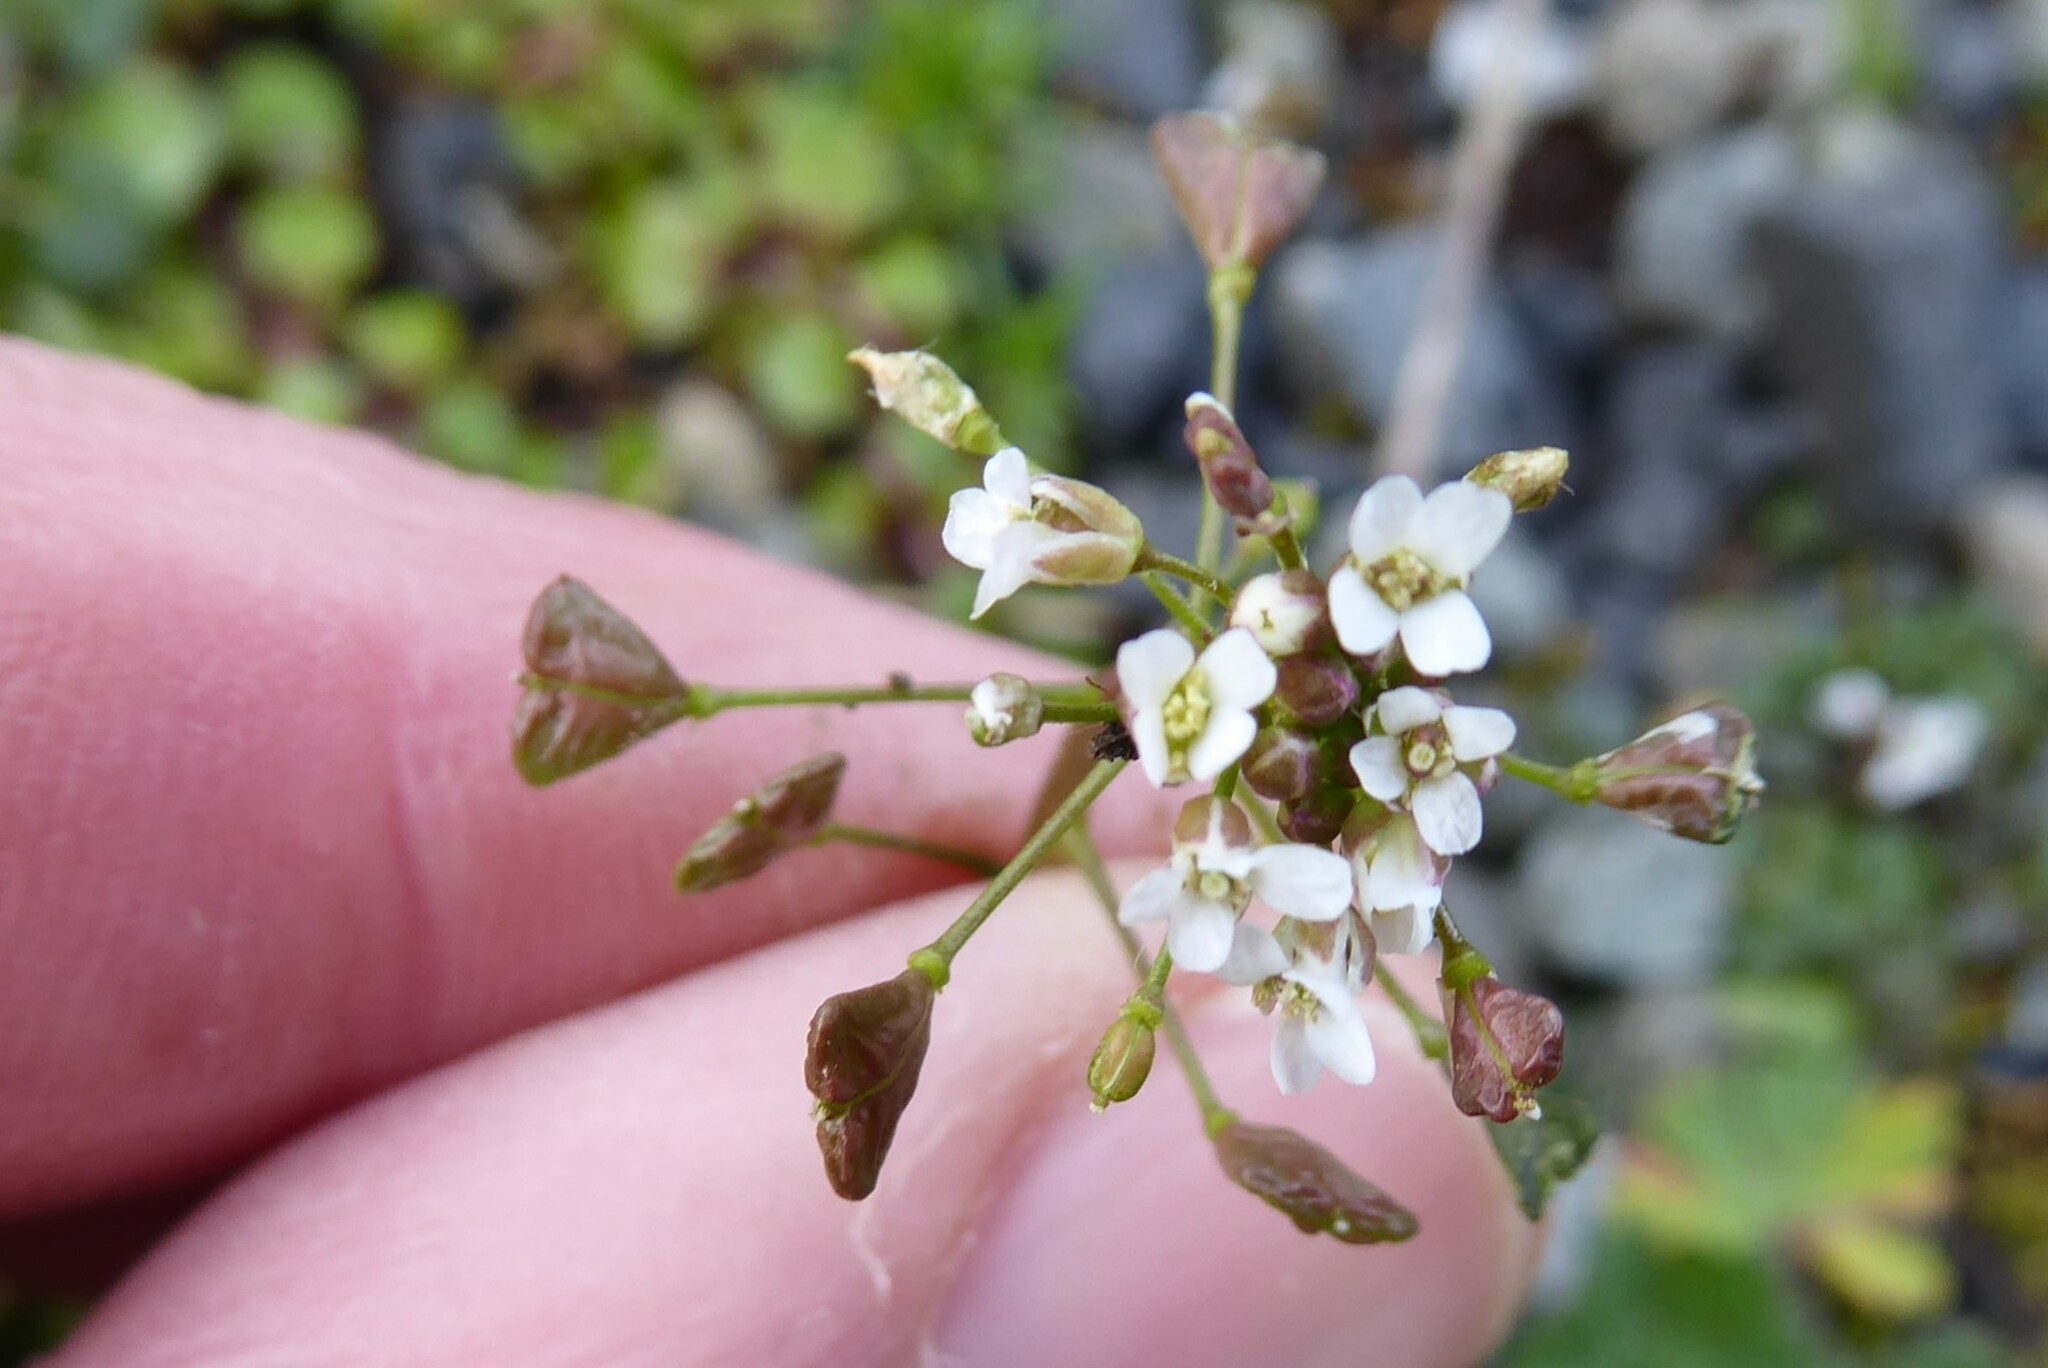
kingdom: Plantae
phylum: Tracheophyta
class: Magnoliopsida
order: Brassicales
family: Brassicaceae
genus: Capsella
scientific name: Capsella bursa-pastoris
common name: Shepherd's purse
